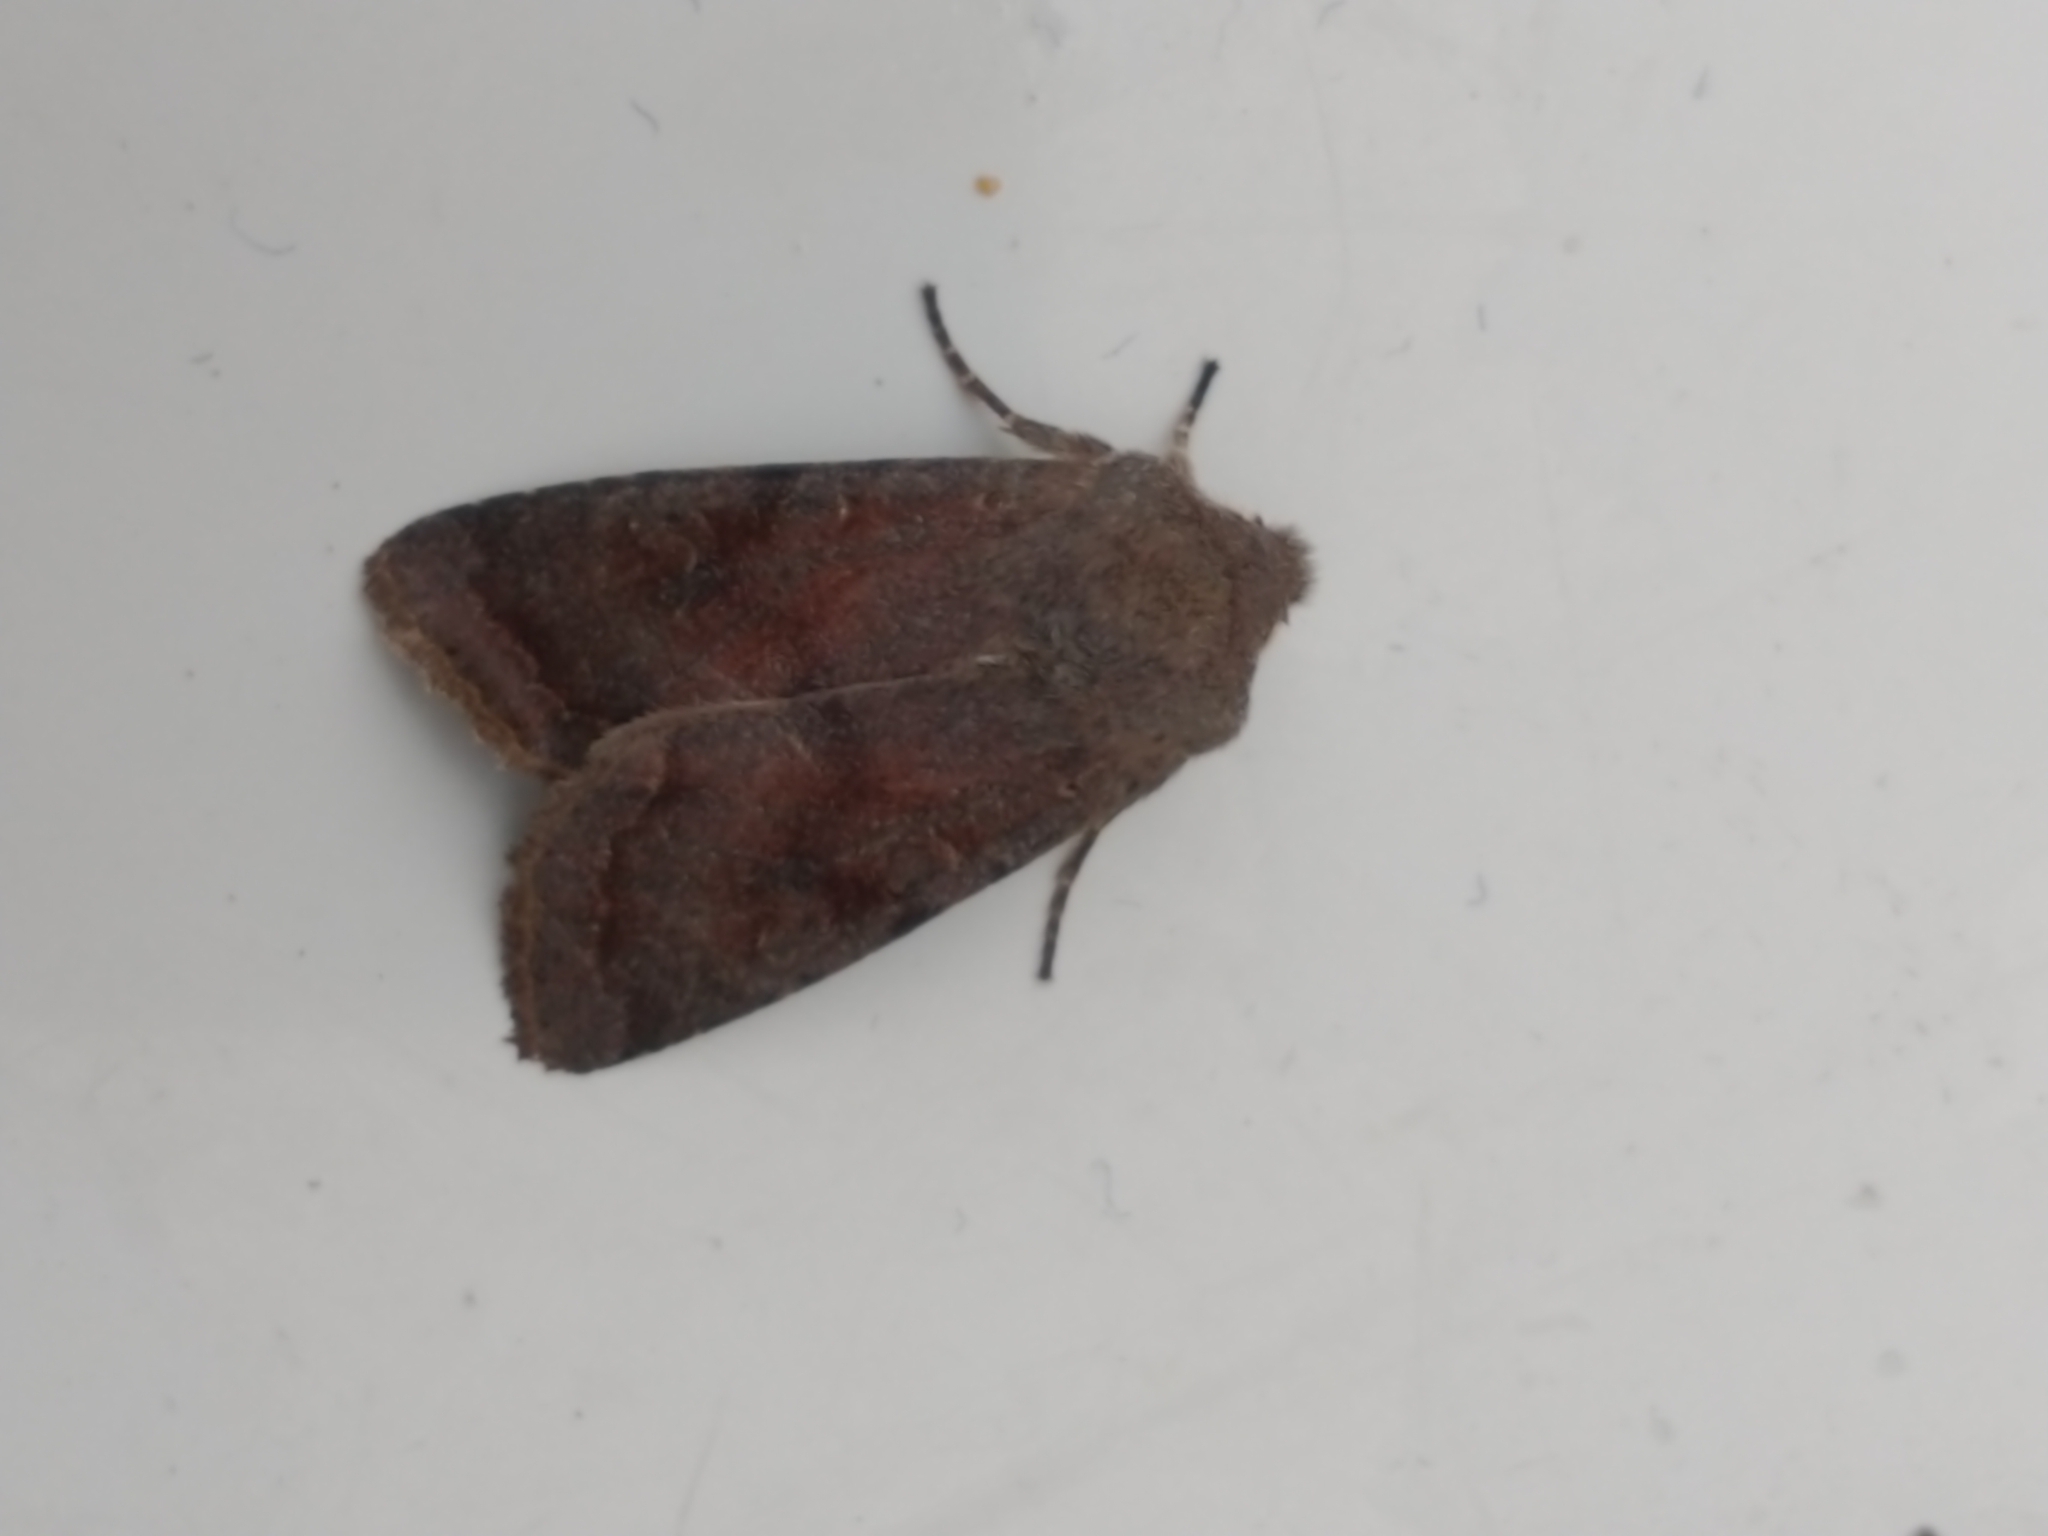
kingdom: Animalia
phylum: Arthropoda
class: Insecta
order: Lepidoptera
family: Noctuidae
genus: Orthosia
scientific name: Orthosia incerta
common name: Clouded drab
